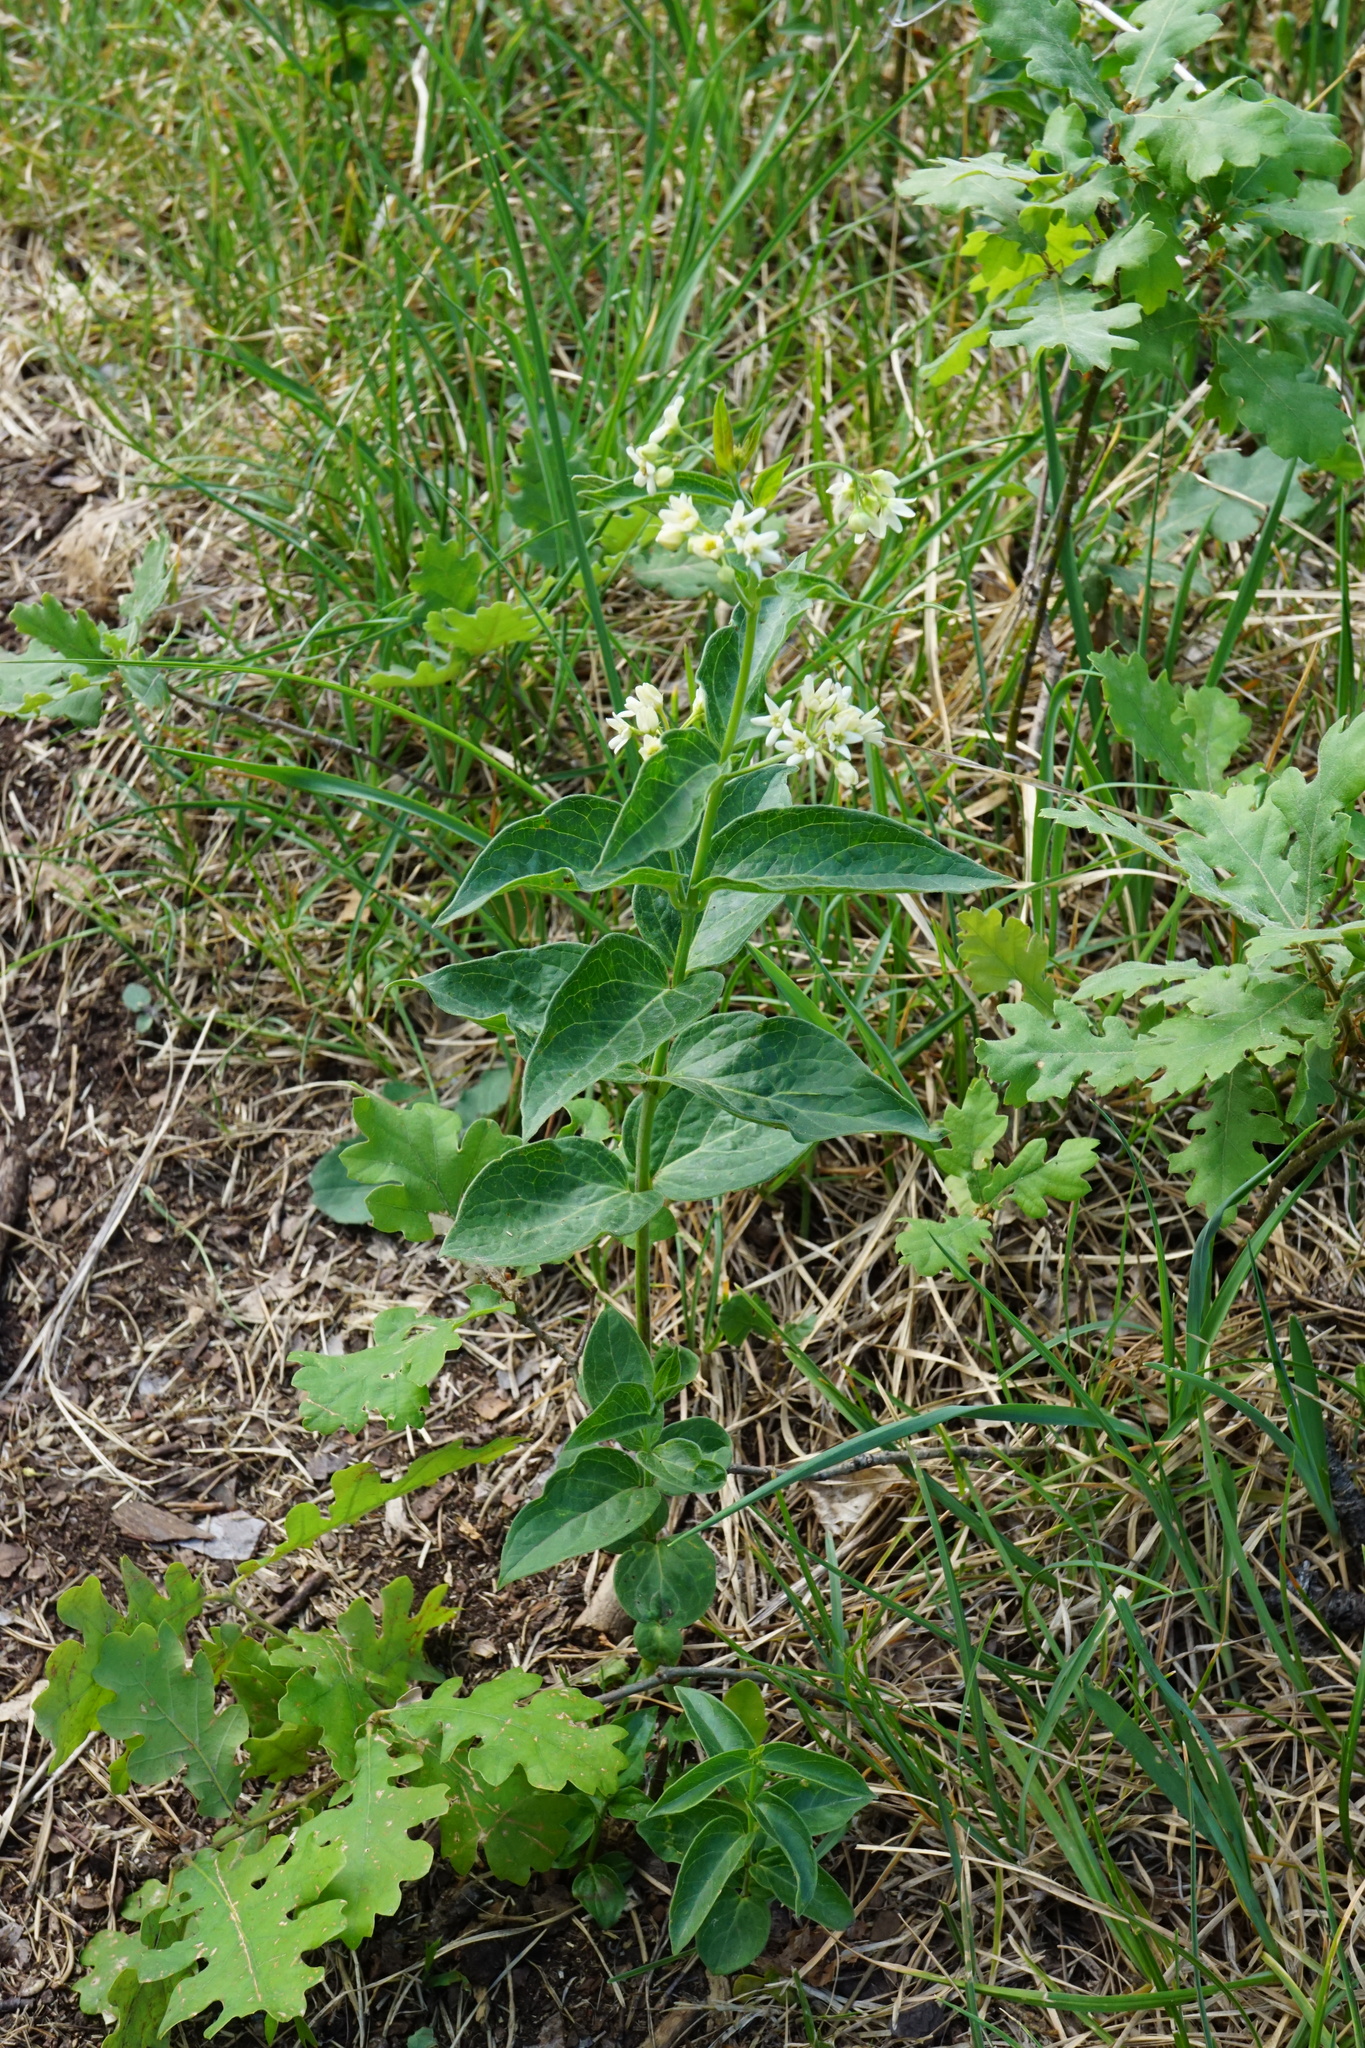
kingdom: Plantae
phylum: Tracheophyta
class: Magnoliopsida
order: Gentianales
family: Apocynaceae
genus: Vincetoxicum
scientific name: Vincetoxicum hirundinaria
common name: White swallowwort
